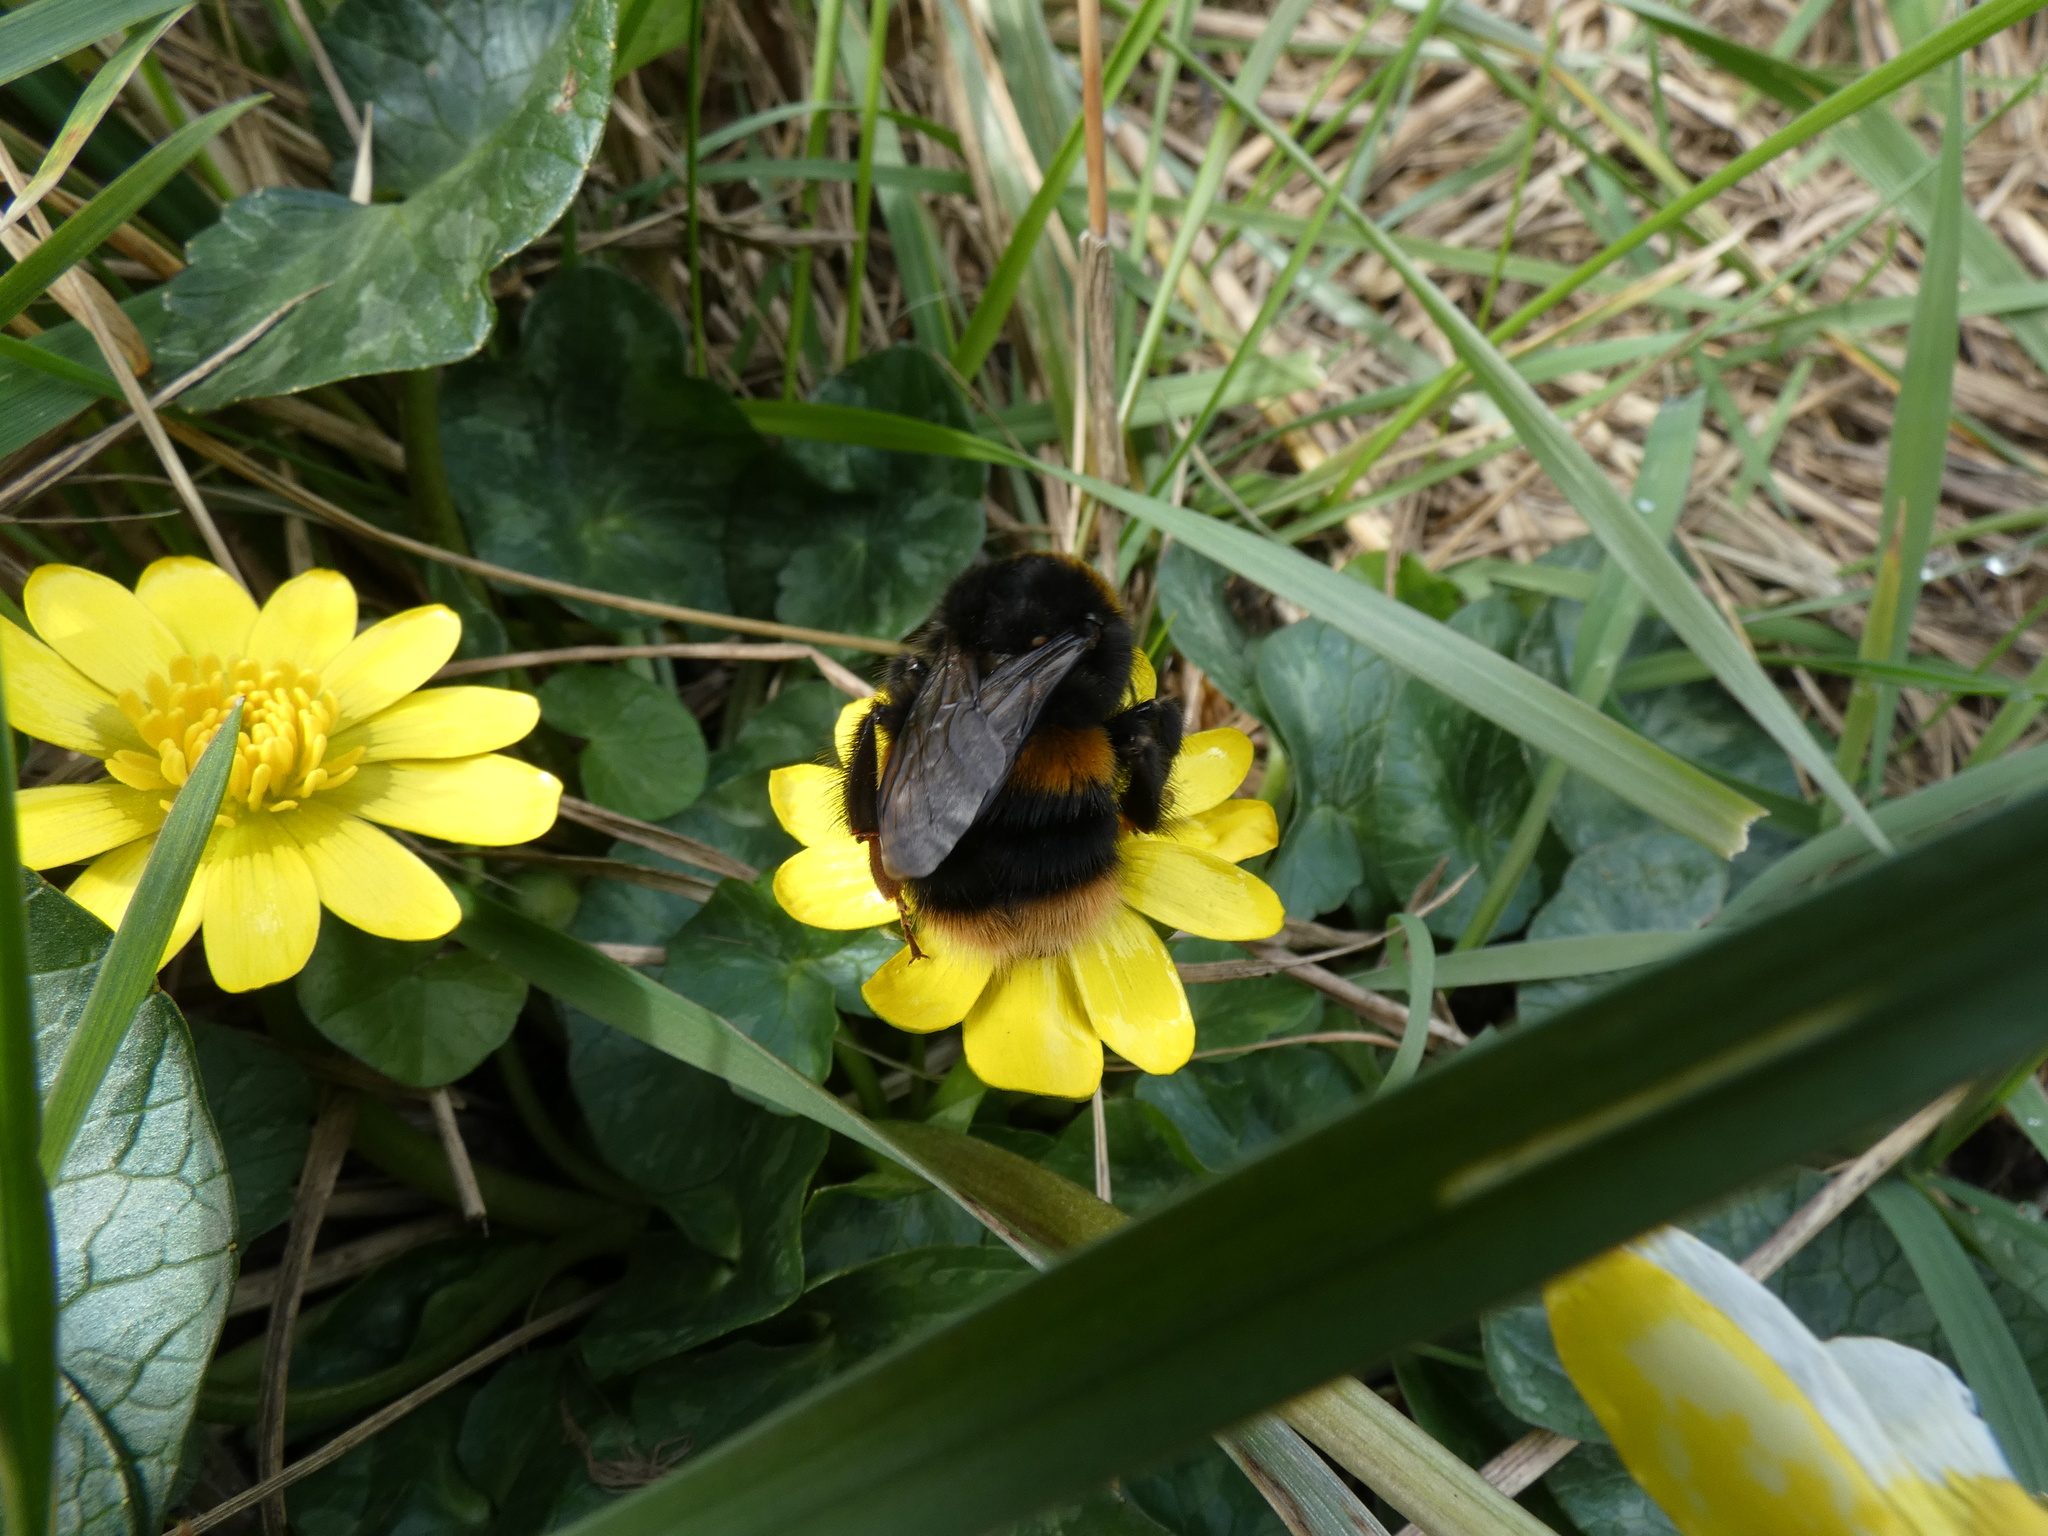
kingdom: Animalia
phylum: Arthropoda
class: Insecta
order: Hymenoptera
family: Apidae
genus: Bombus
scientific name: Bombus terrestris
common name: Buff-tailed bumblebee
